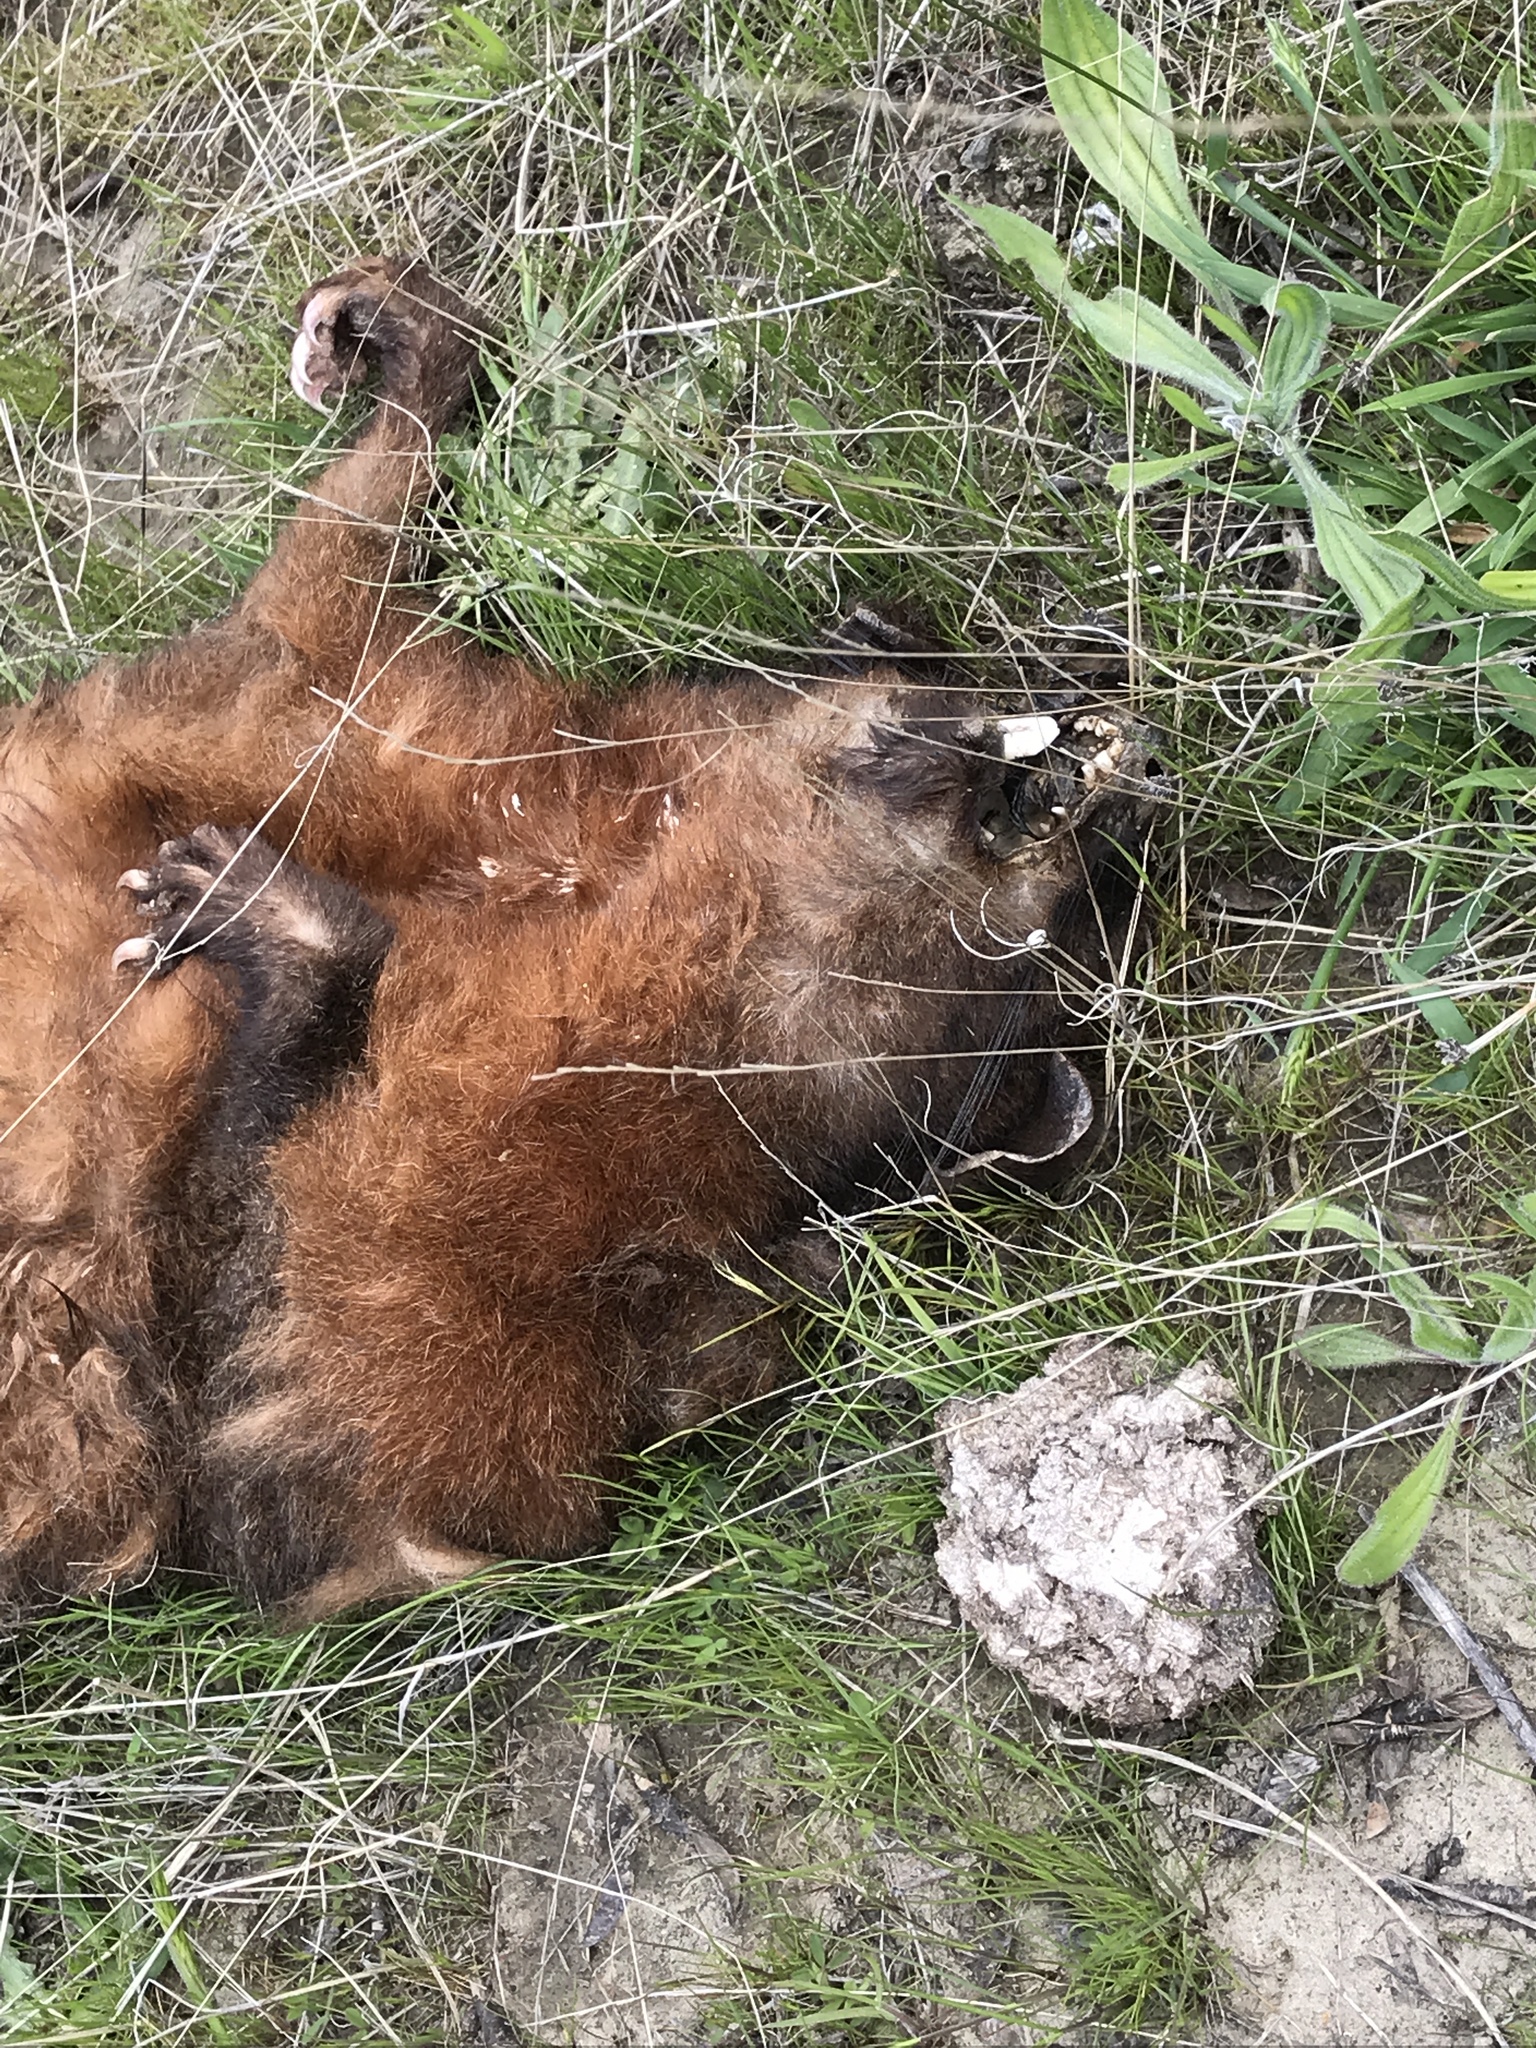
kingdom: Animalia
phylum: Chordata
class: Mammalia
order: Diprotodontia
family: Phalangeridae
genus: Trichosurus
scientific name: Trichosurus vulpecula
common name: Common brushtail
